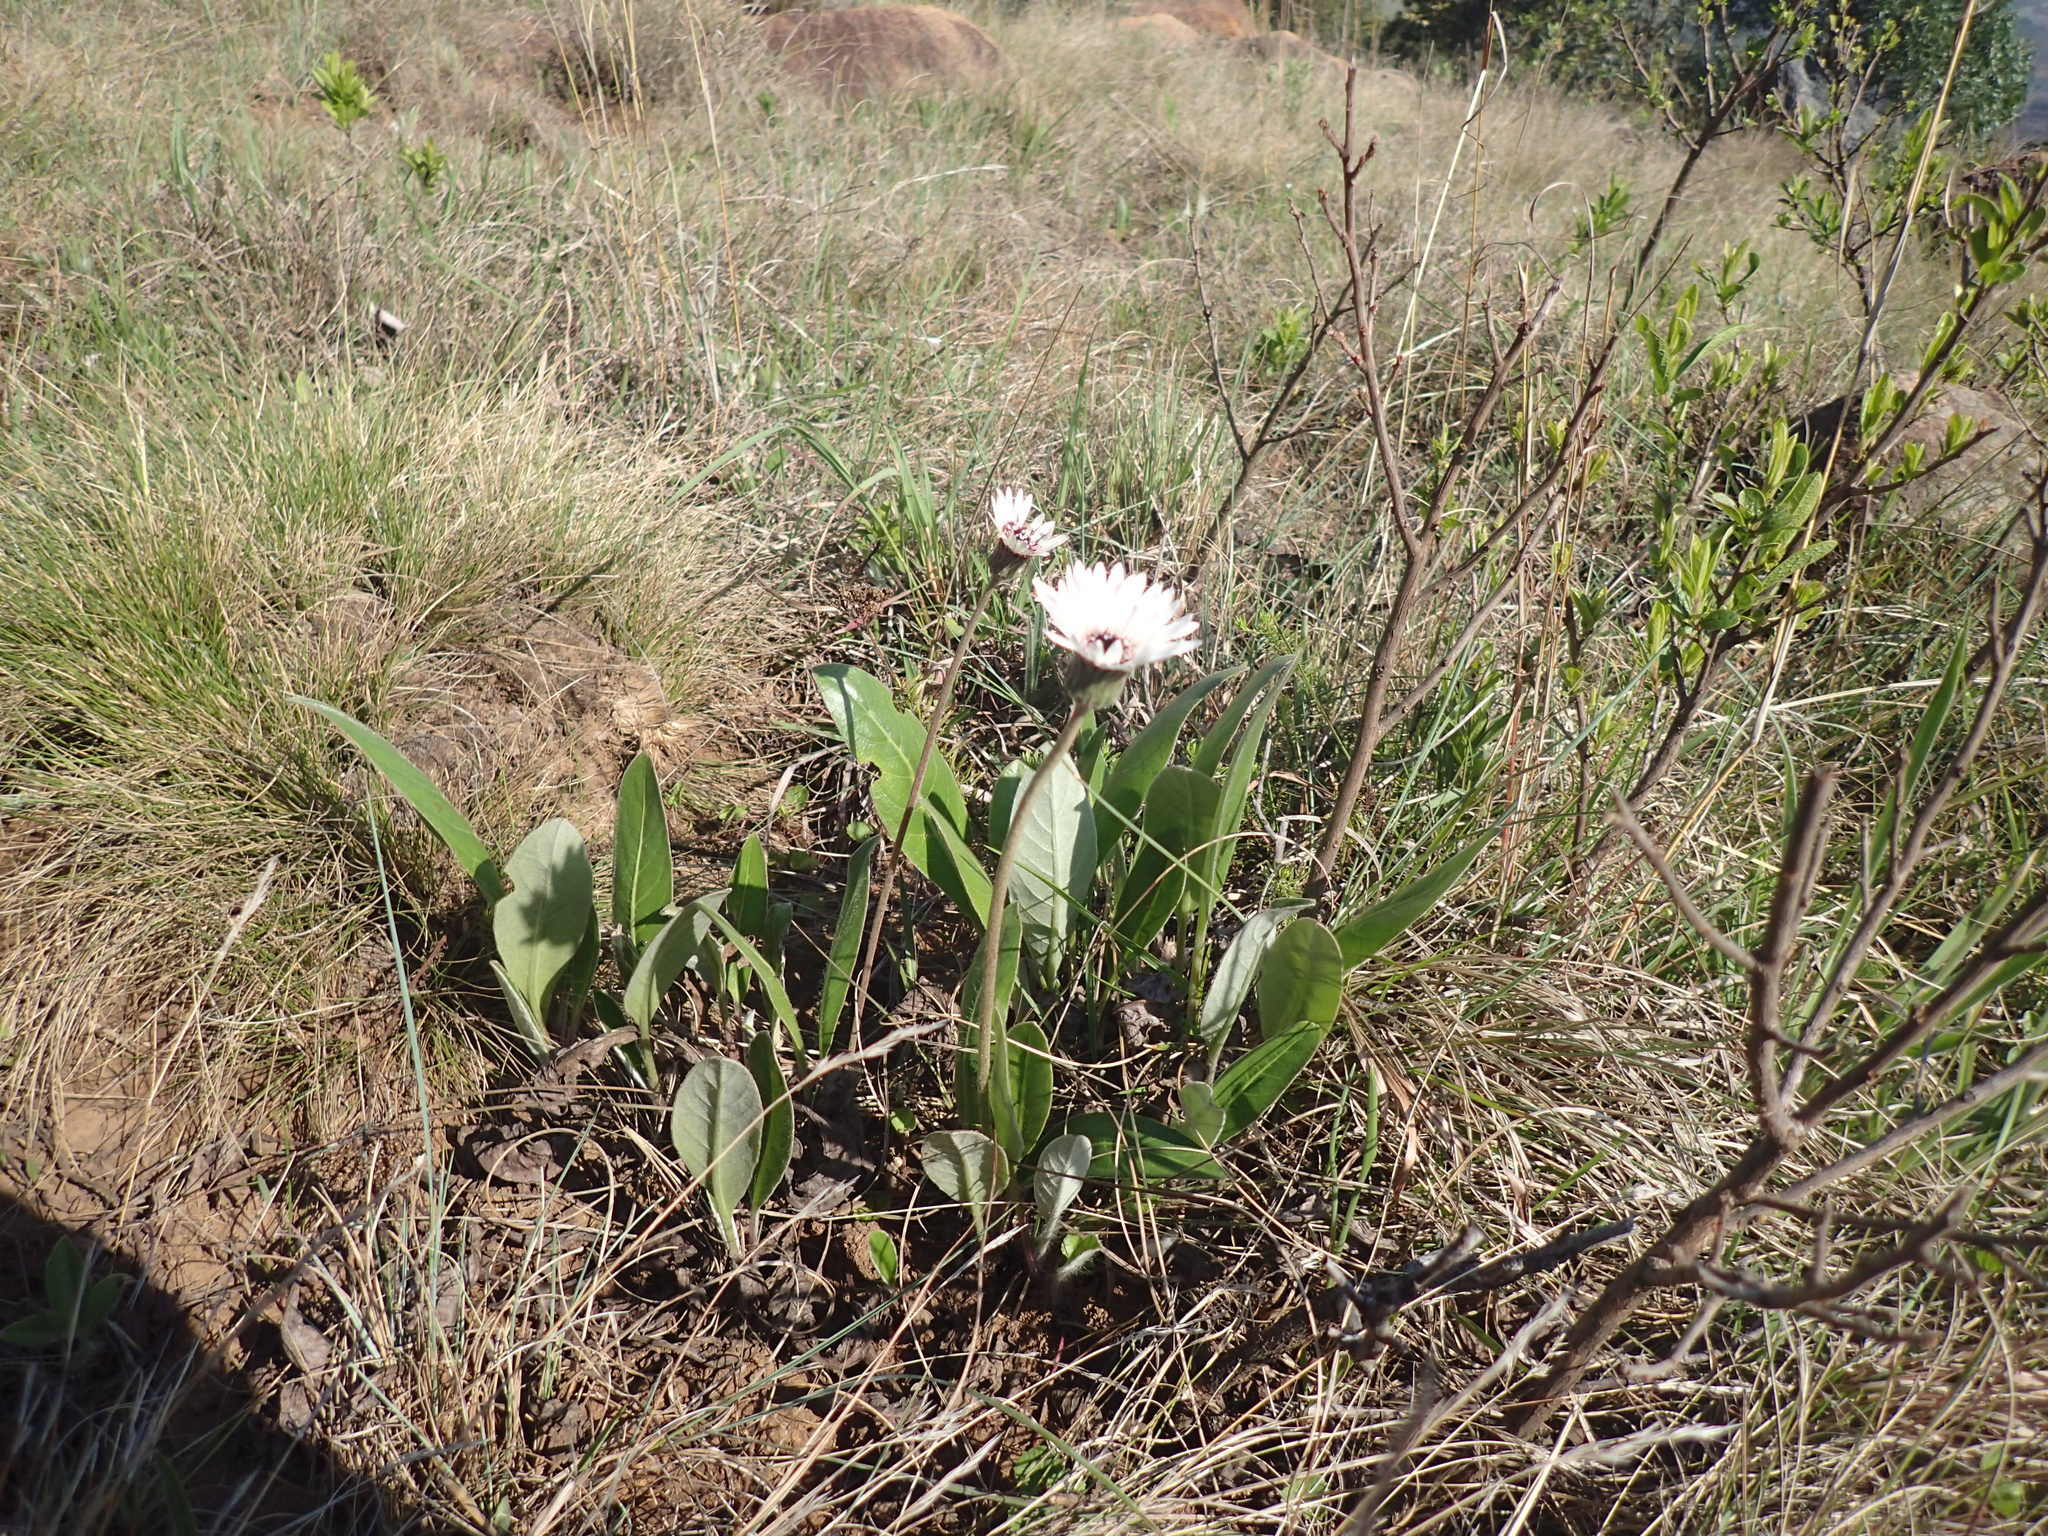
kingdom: Plantae
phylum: Tracheophyta
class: Magnoliopsida
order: Asterales
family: Asteraceae
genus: Gerbera
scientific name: Gerbera ambigua
